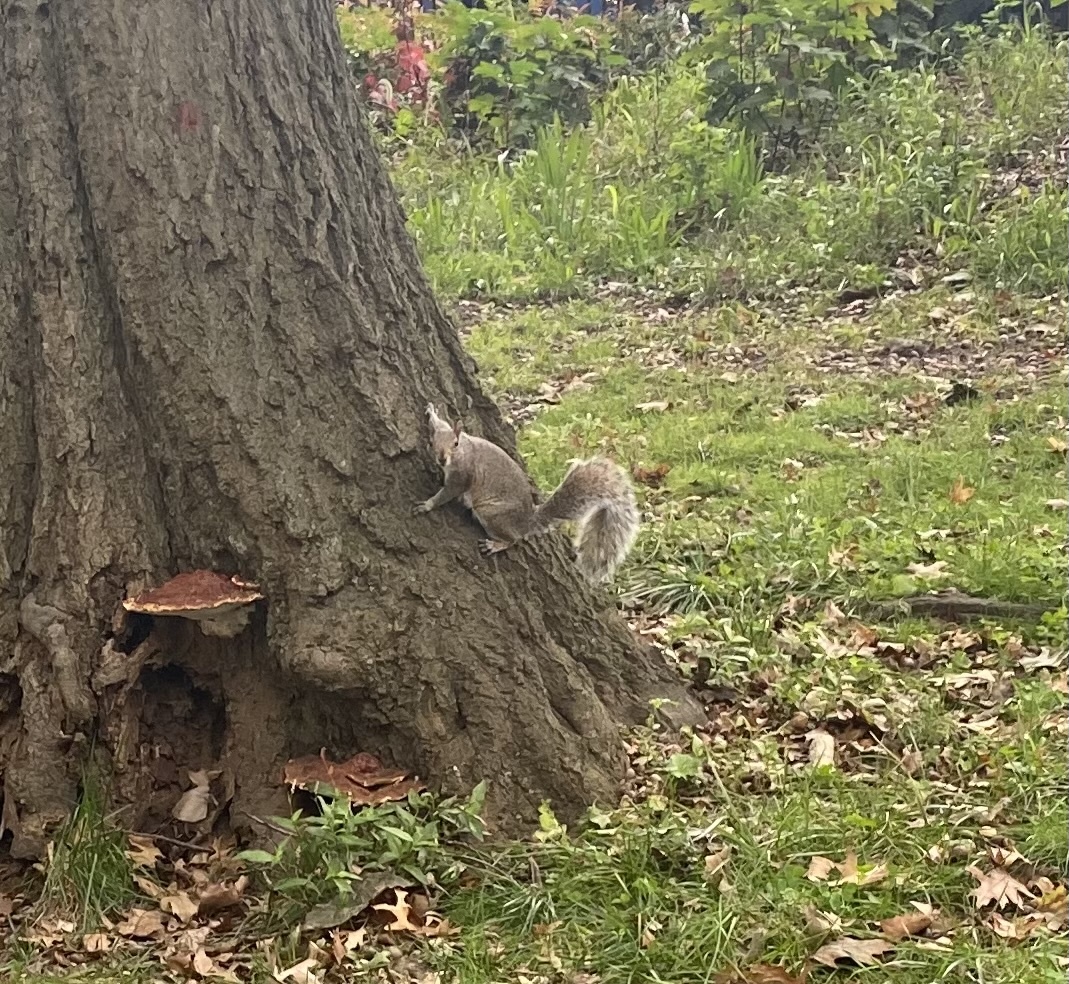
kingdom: Animalia
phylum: Chordata
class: Mammalia
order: Rodentia
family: Sciuridae
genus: Sciurus
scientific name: Sciurus carolinensis
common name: Eastern gray squirrel
